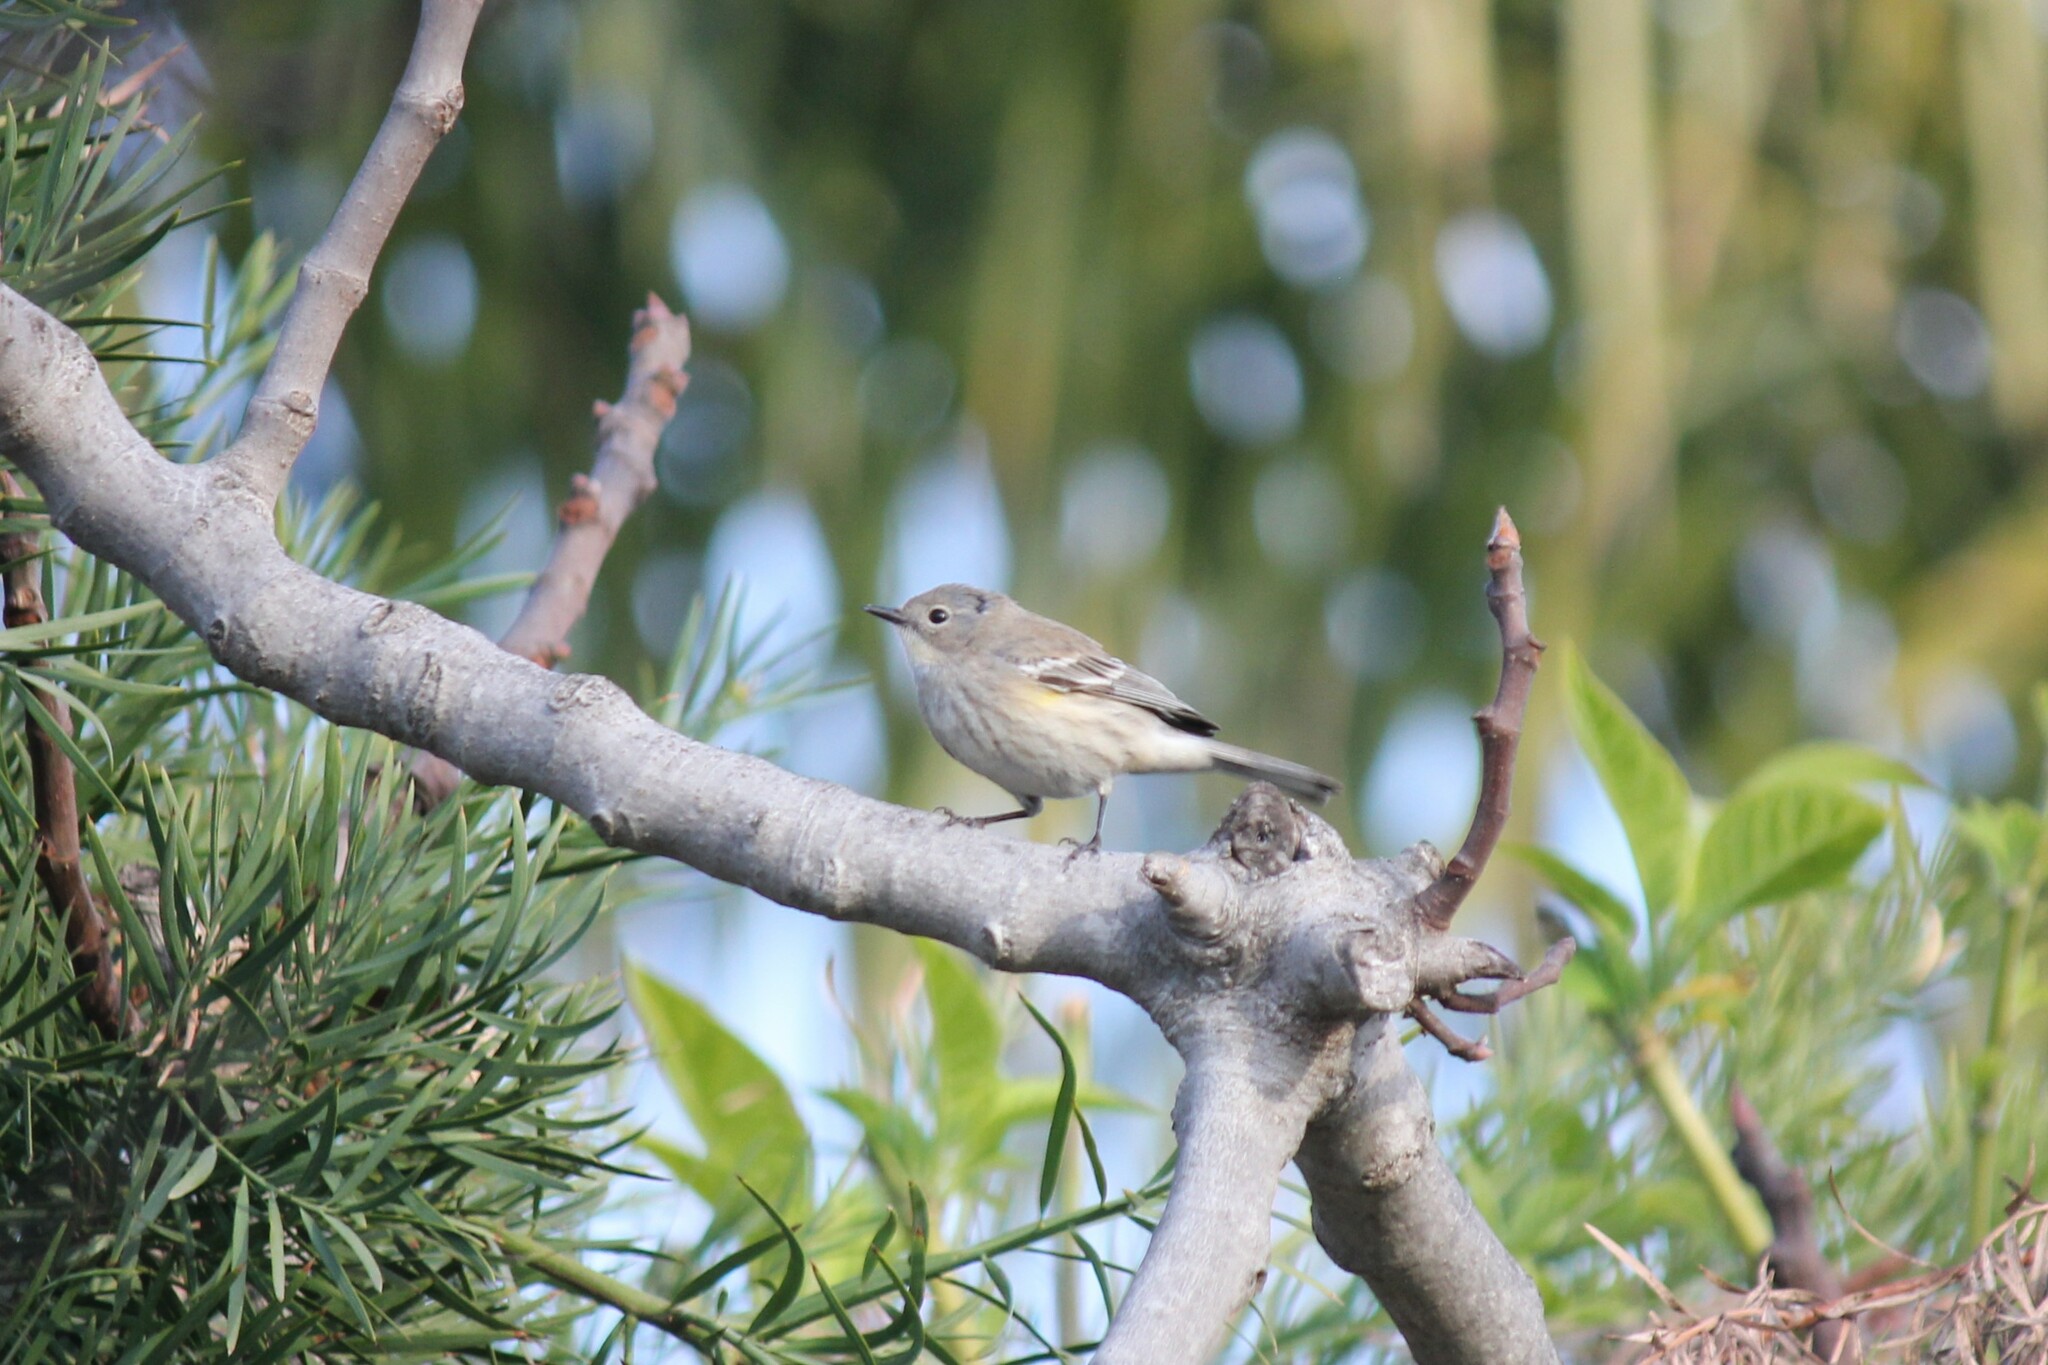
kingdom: Animalia
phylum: Chordata
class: Aves
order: Passeriformes
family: Parulidae
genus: Setophaga
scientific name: Setophaga coronata
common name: Myrtle warbler
